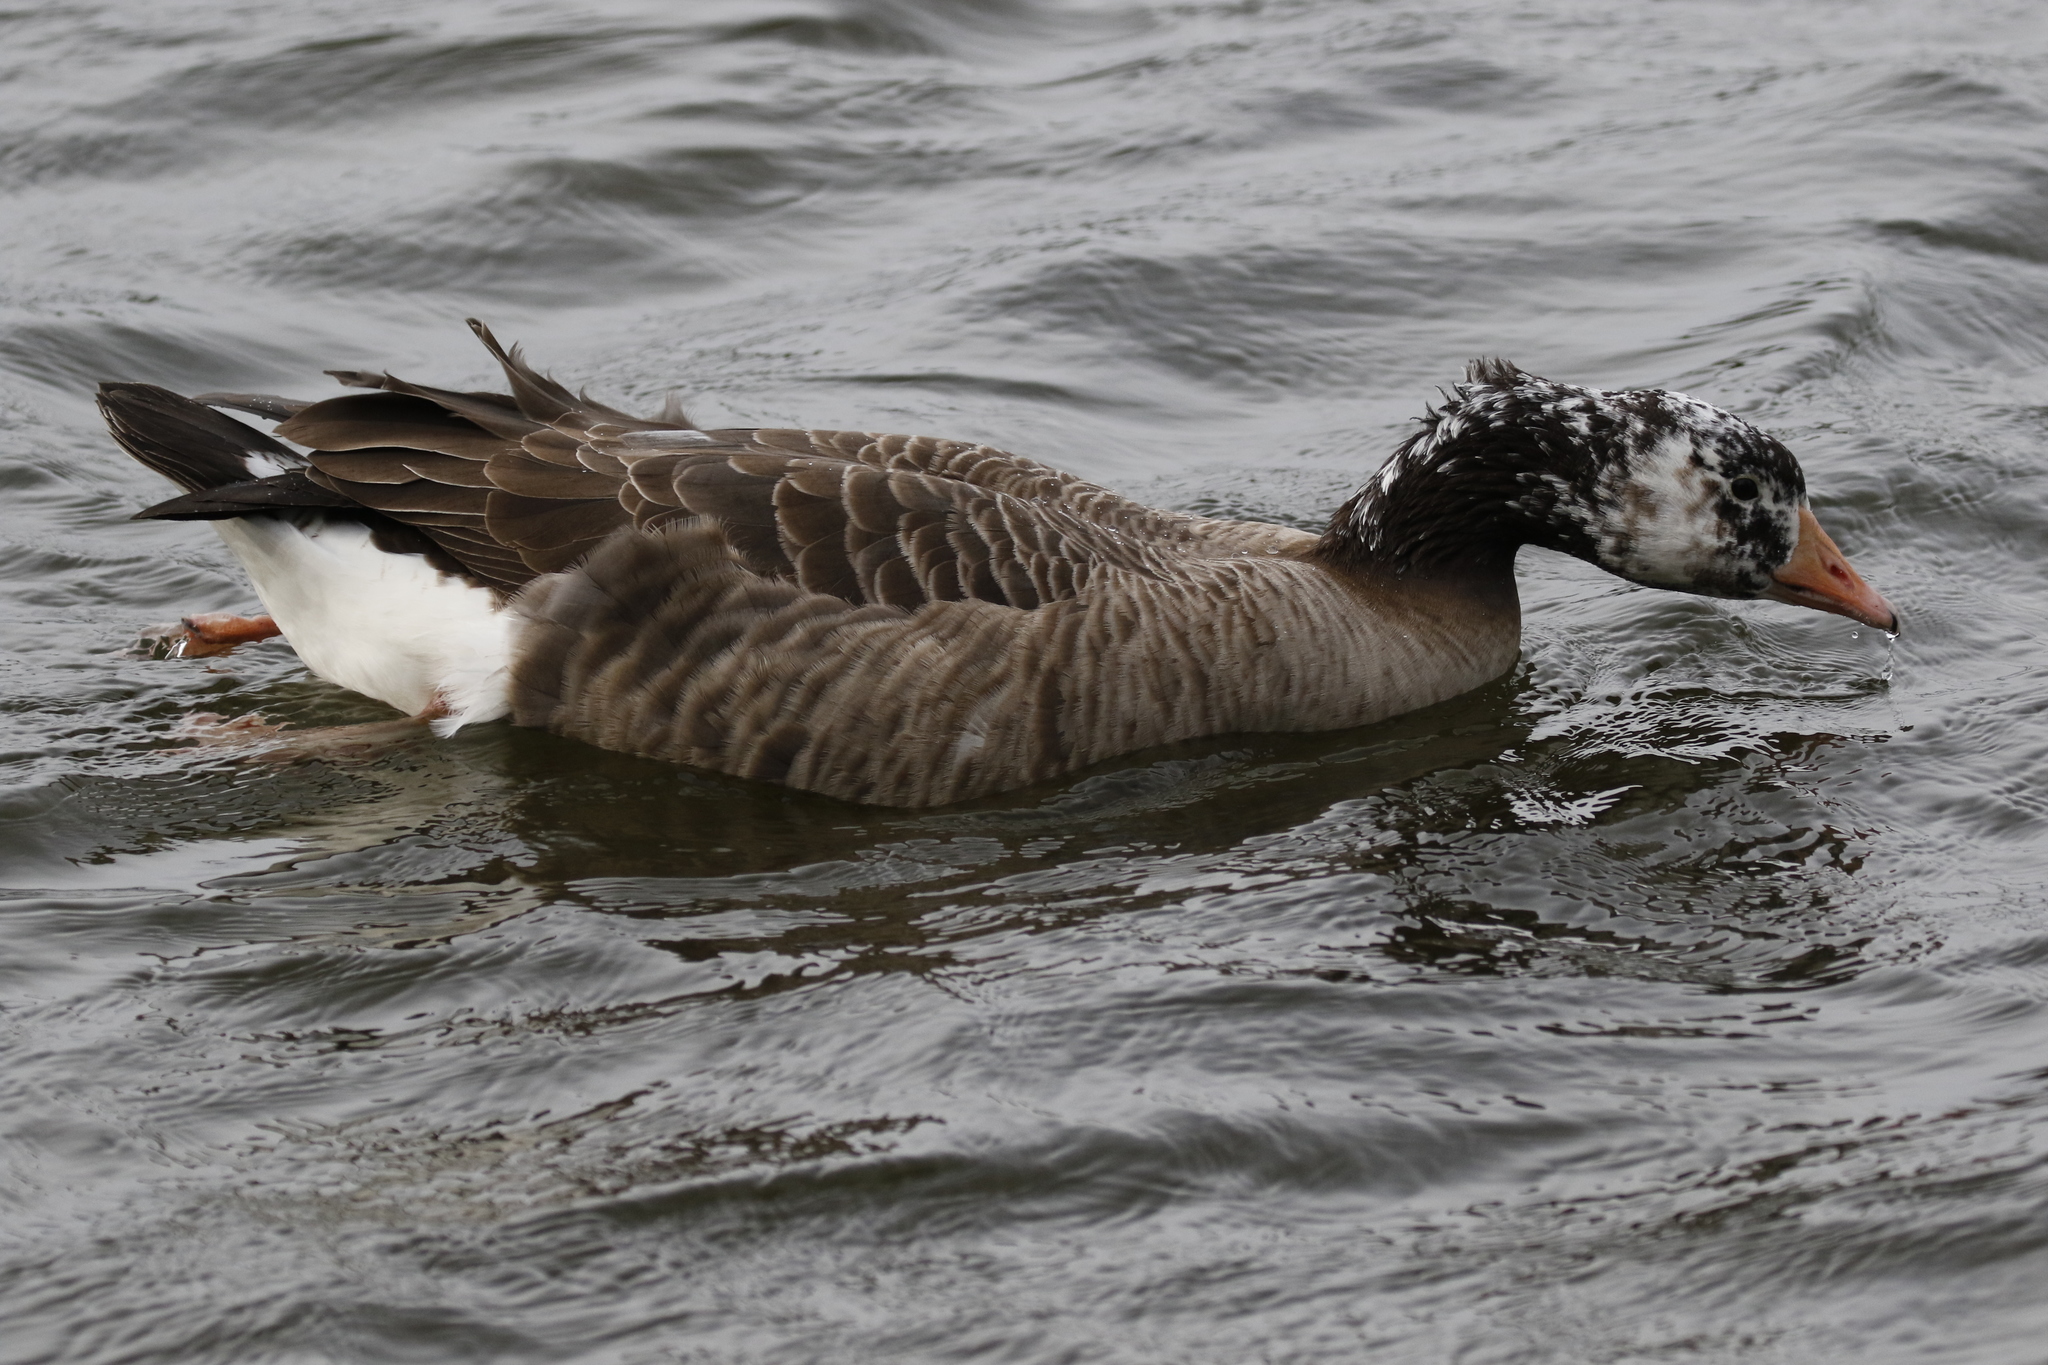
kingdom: Animalia
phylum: Chordata
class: Aves
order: Anseriformes
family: Anatidae
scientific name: Anatidae
